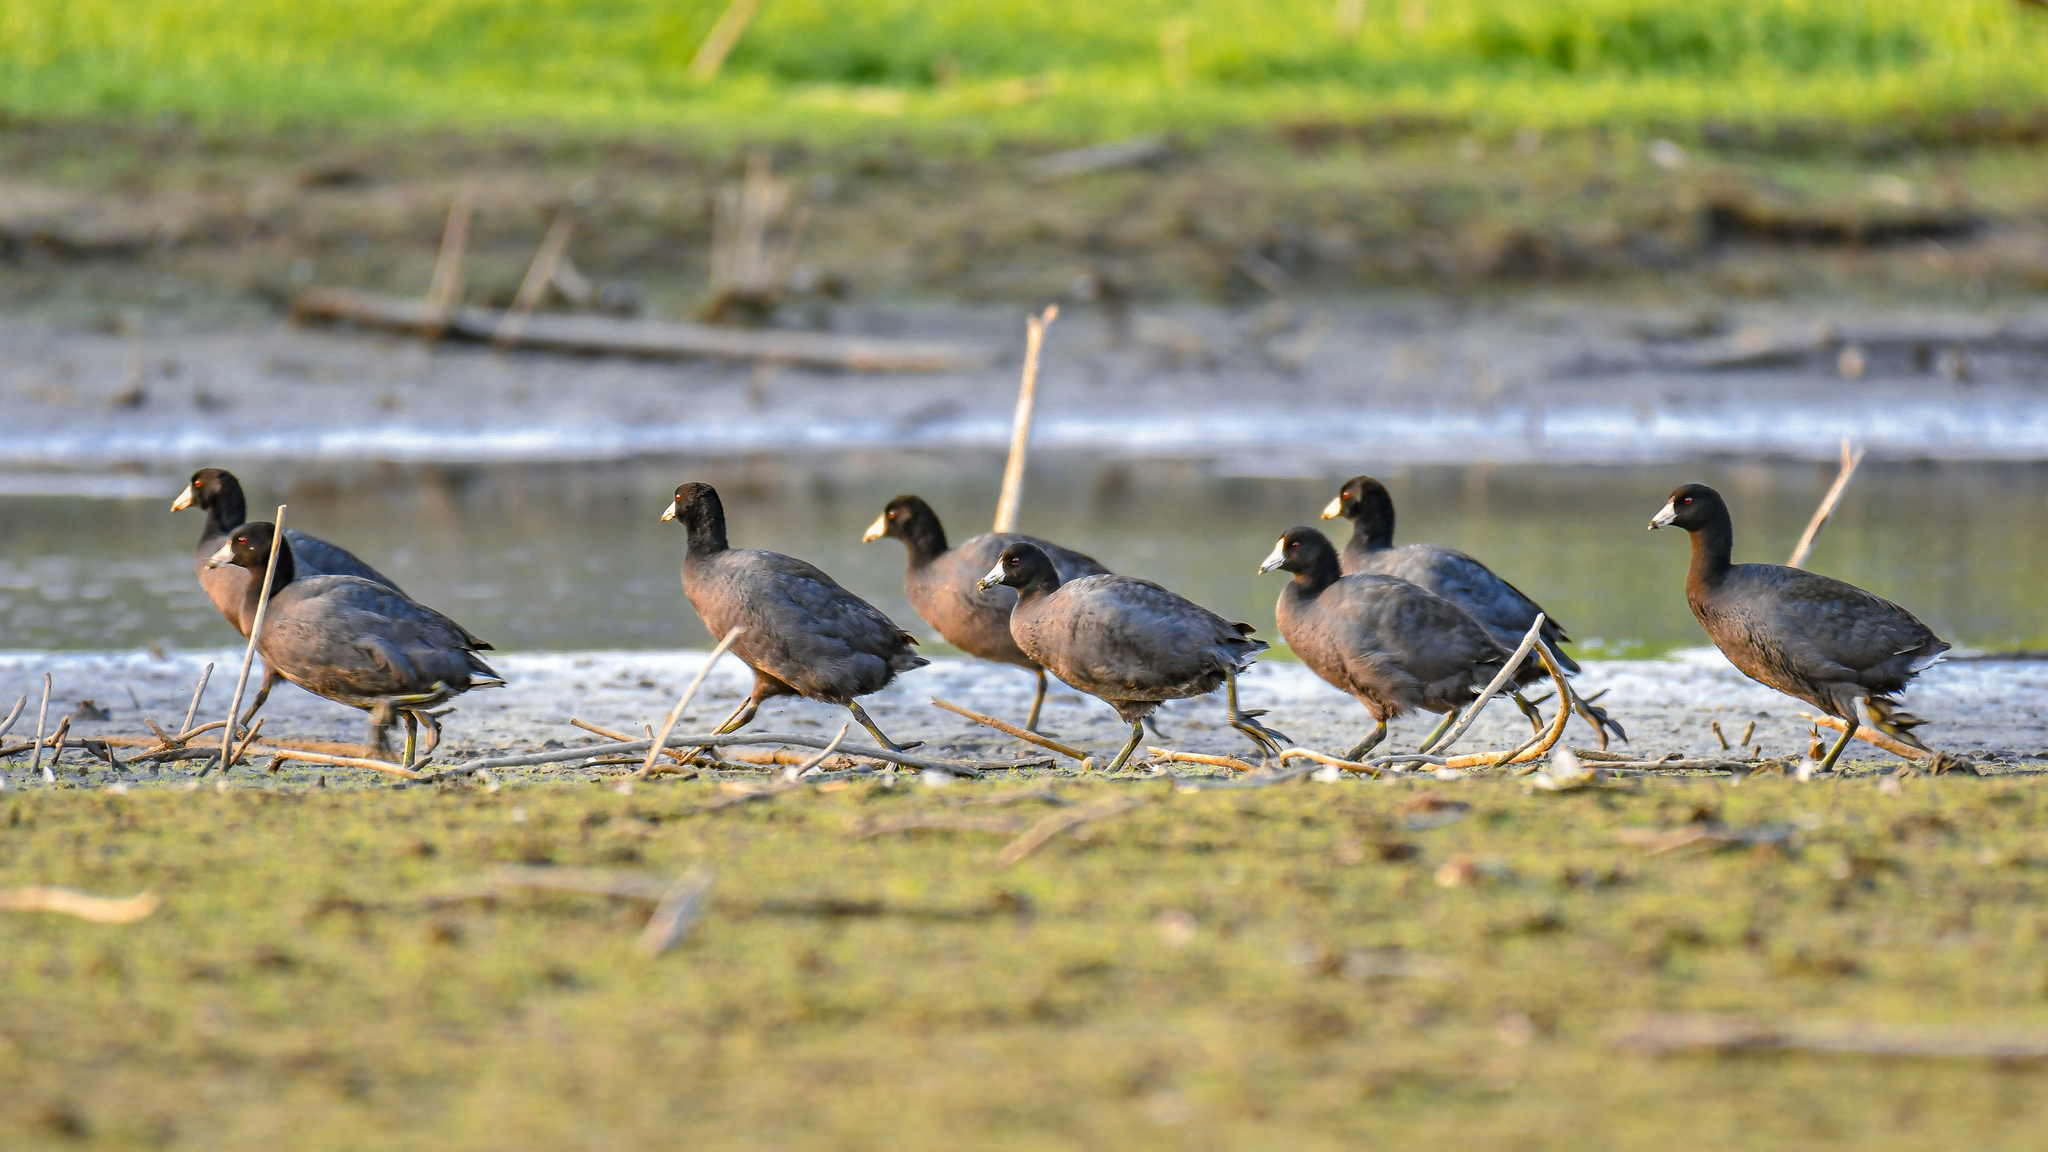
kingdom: Animalia
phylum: Chordata
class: Aves
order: Gruiformes
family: Rallidae
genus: Fulica
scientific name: Fulica americana
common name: American coot
